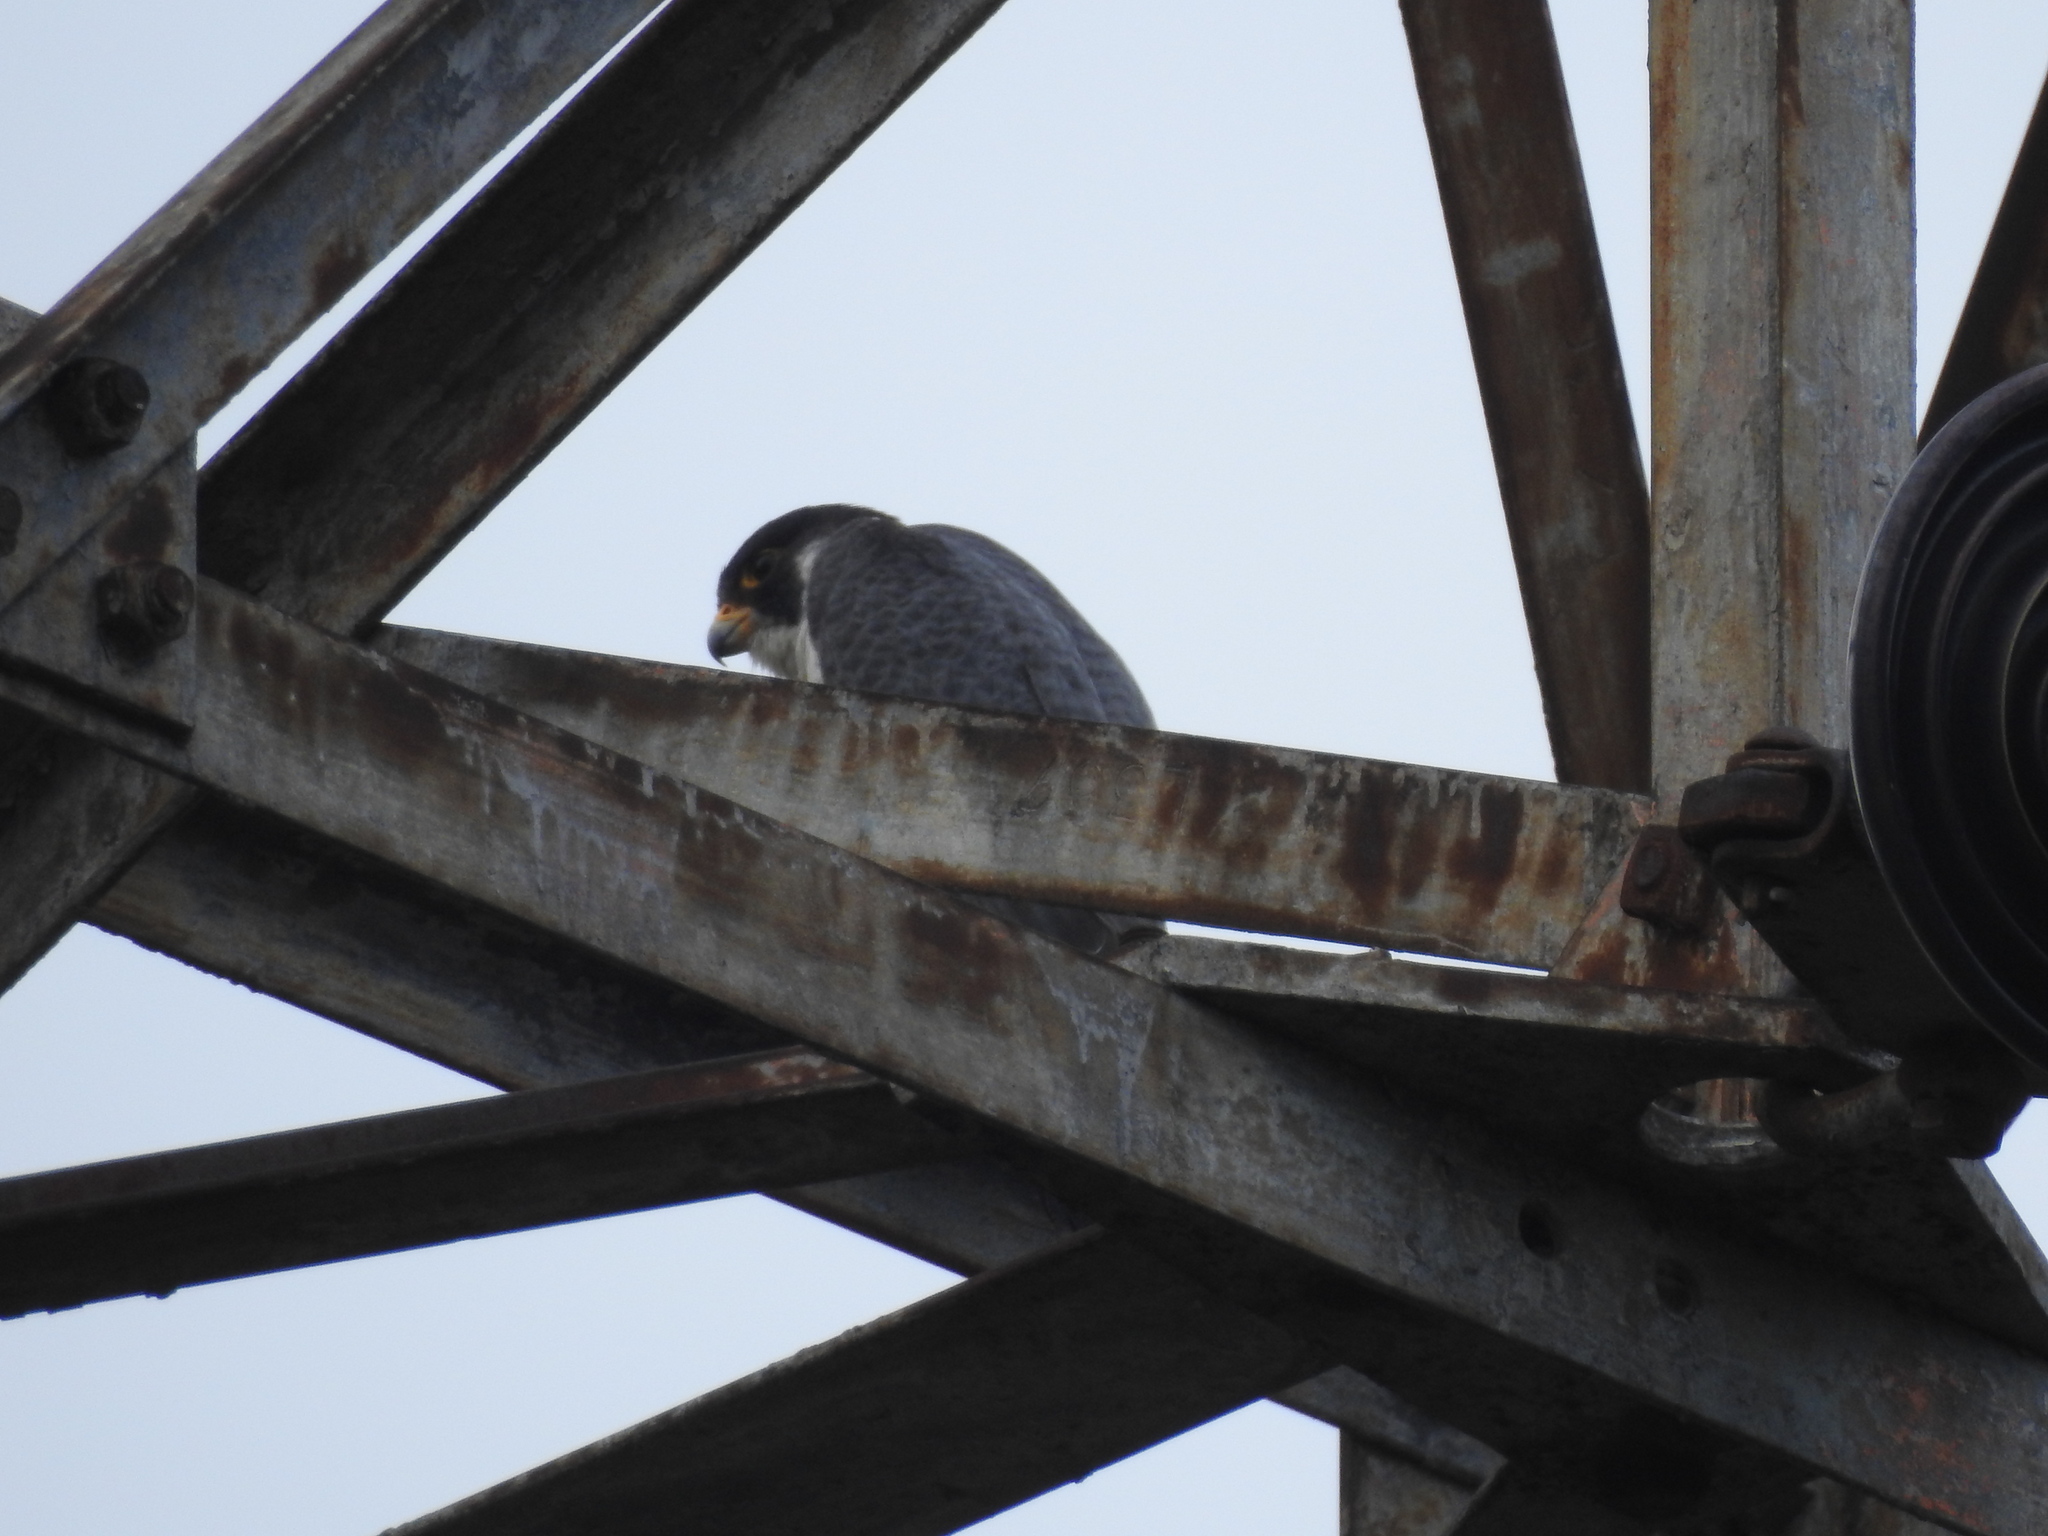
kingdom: Animalia
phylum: Chordata
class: Aves
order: Falconiformes
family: Falconidae
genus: Falco
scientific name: Falco peregrinus
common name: Peregrine falcon
